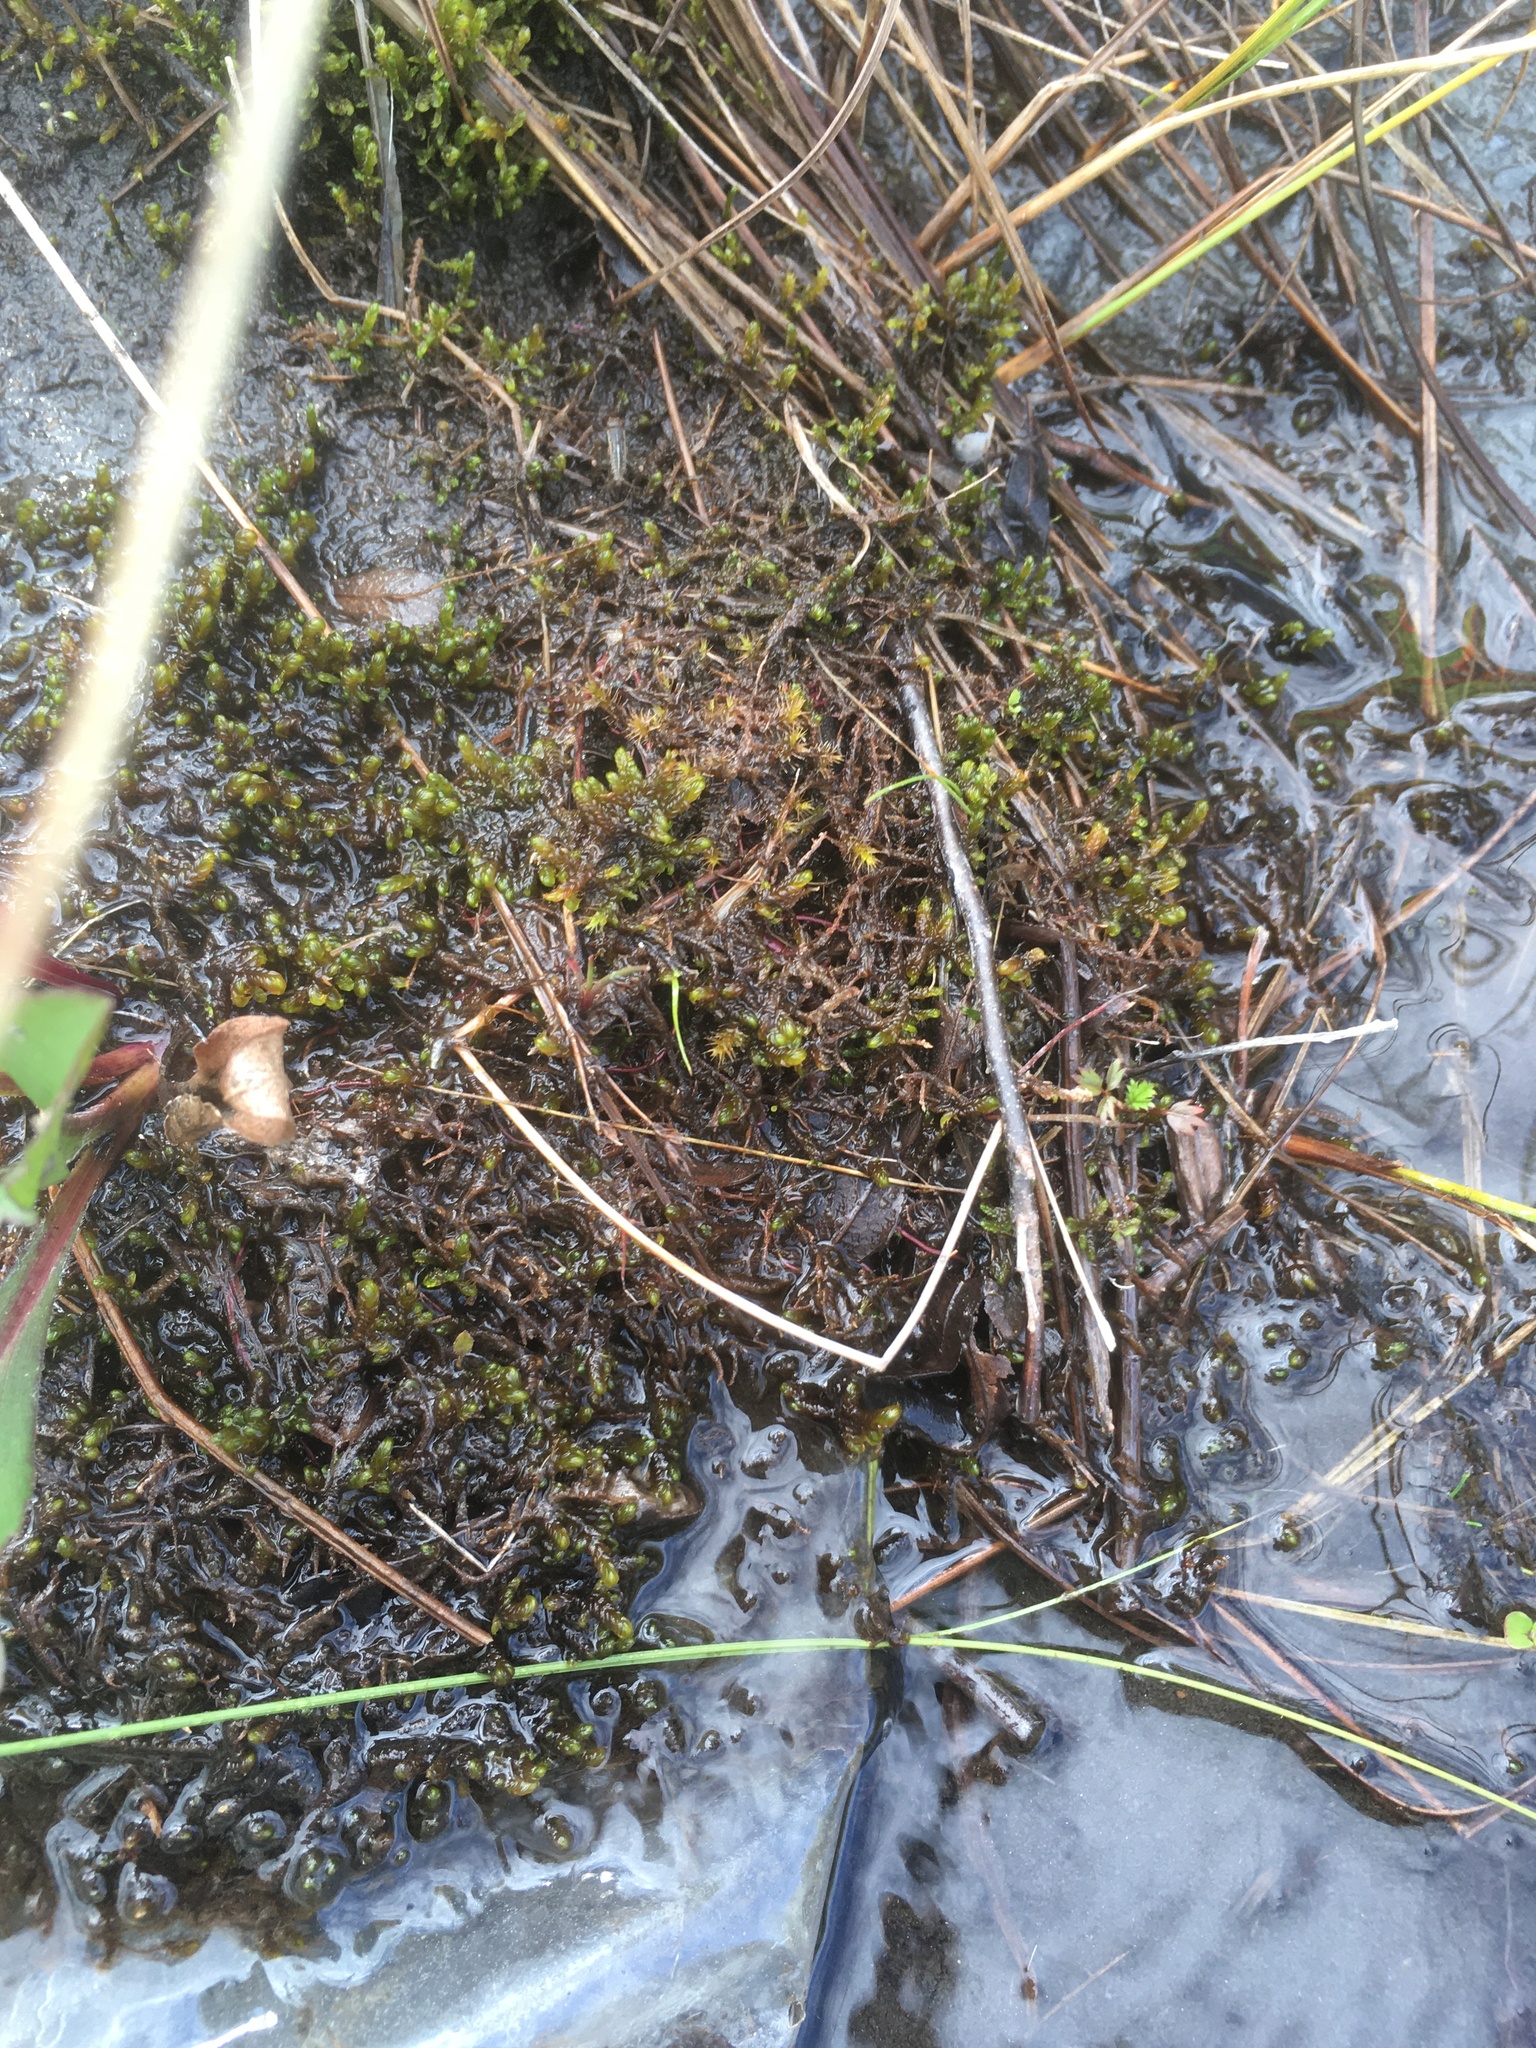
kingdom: Plantae
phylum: Bryophyta
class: Bryopsida
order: Hypnales
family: Scorpidiaceae
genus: Scorpidium
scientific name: Scorpidium scorpioides
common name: Hooked scorpion moss
